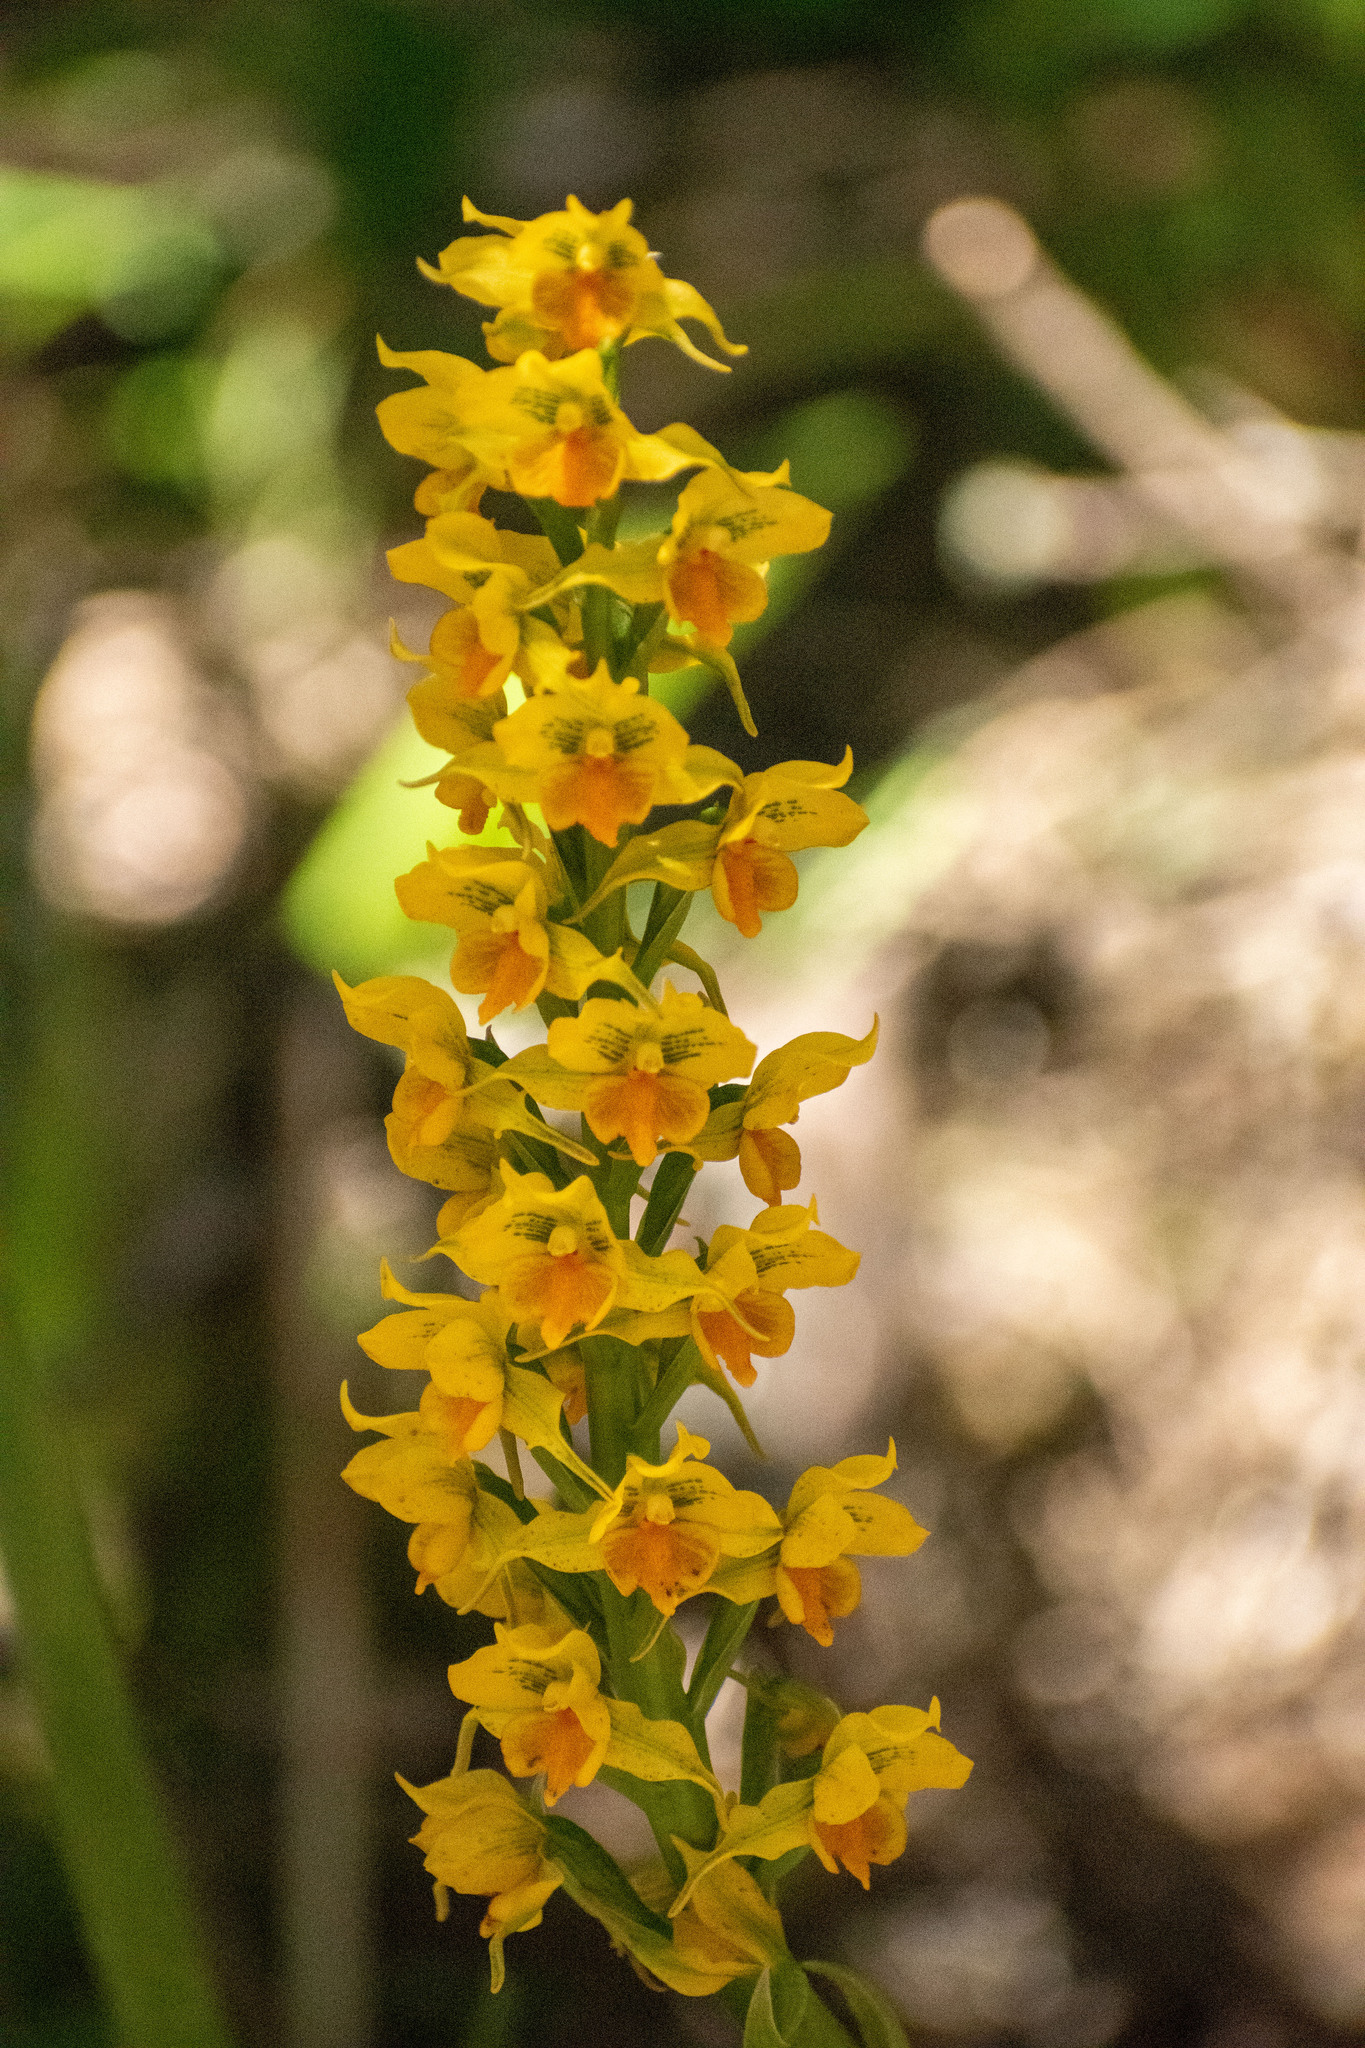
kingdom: Plantae
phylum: Tracheophyta
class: Liliopsida
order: Asparagales
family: Orchidaceae
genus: Gavilea
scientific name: Gavilea odoratissima
